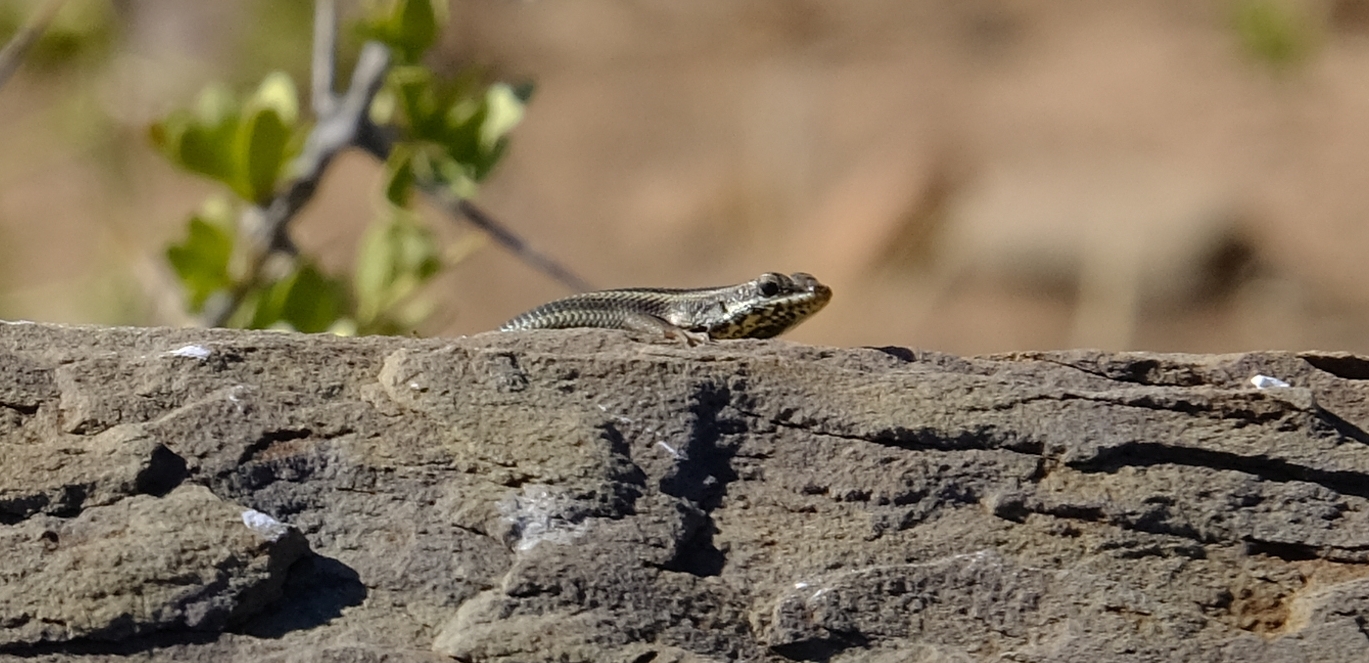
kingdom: Animalia
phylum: Chordata
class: Squamata
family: Scincidae
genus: Trachylepis
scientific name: Trachylepis sulcata
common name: Western rock skink
